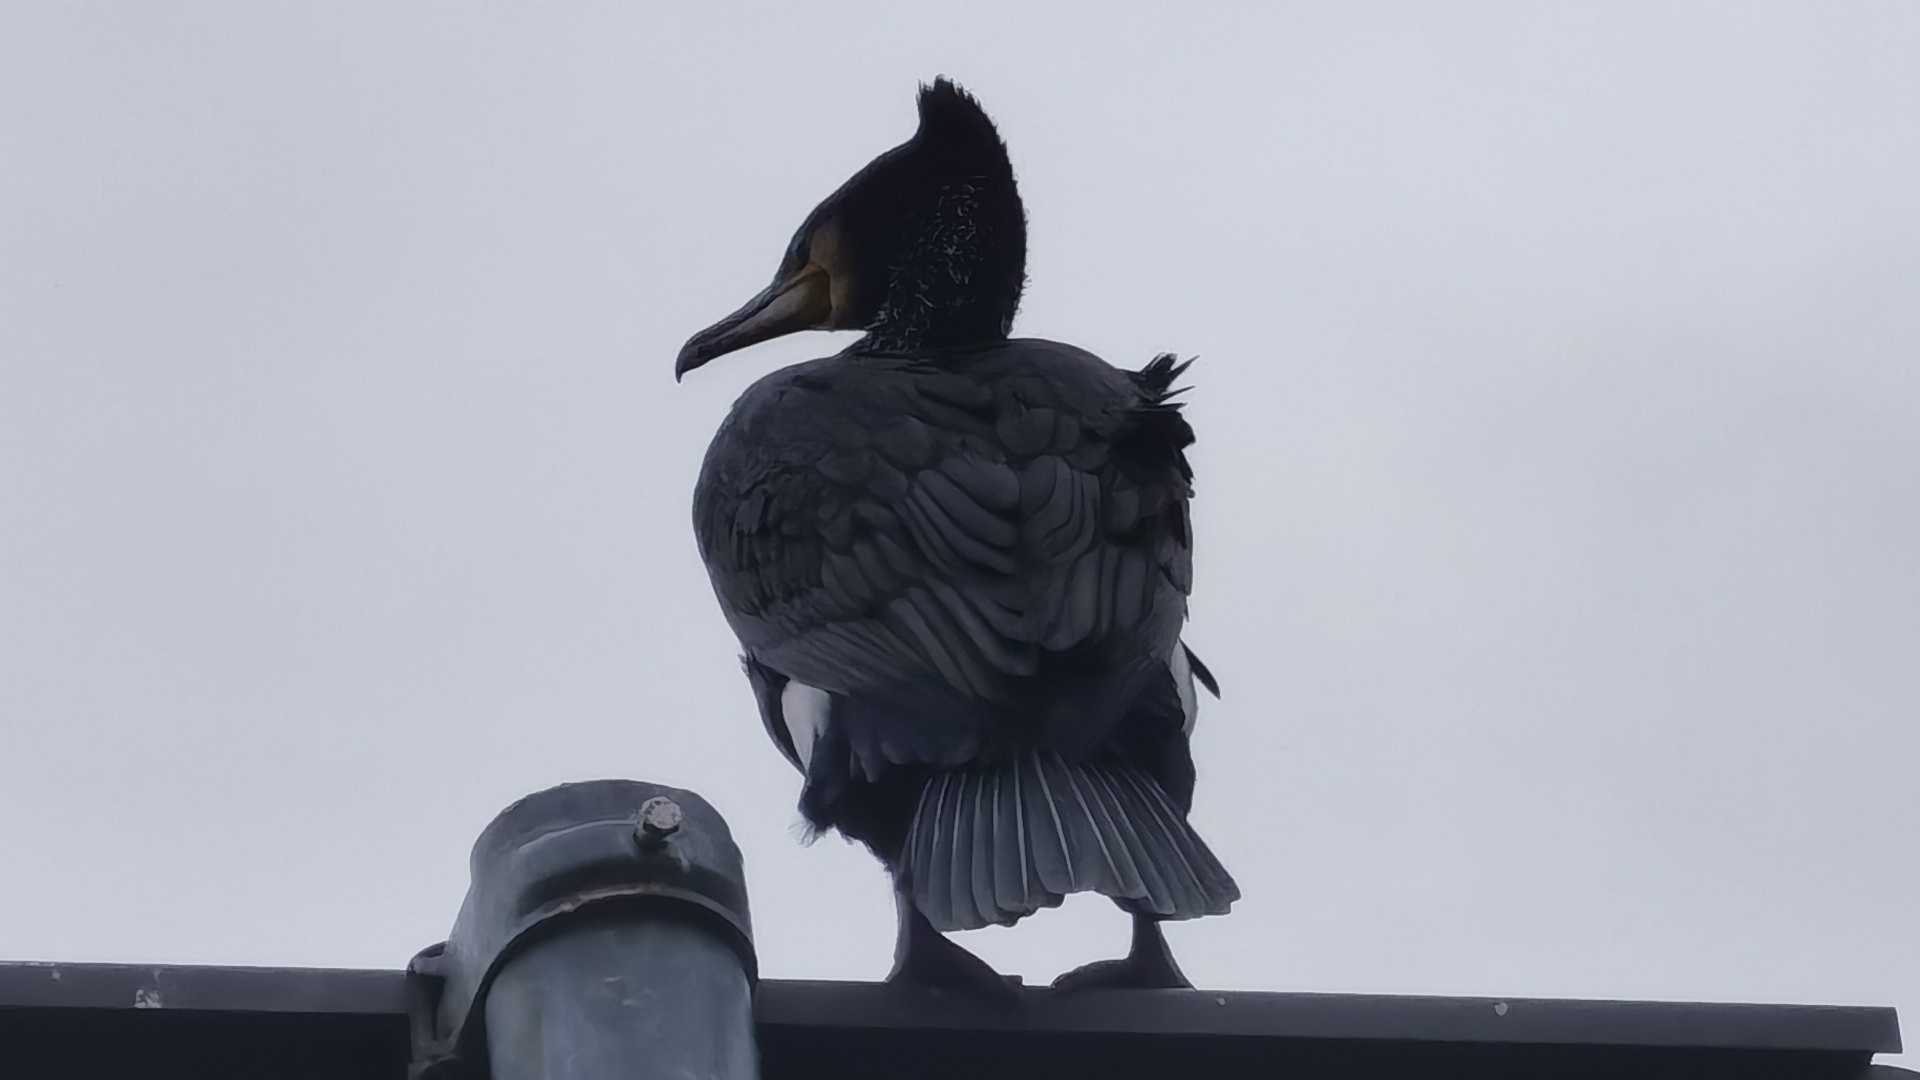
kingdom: Animalia
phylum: Chordata
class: Aves
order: Suliformes
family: Phalacrocoracidae
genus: Phalacrocorax
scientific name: Phalacrocorax carbo
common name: Great cormorant
